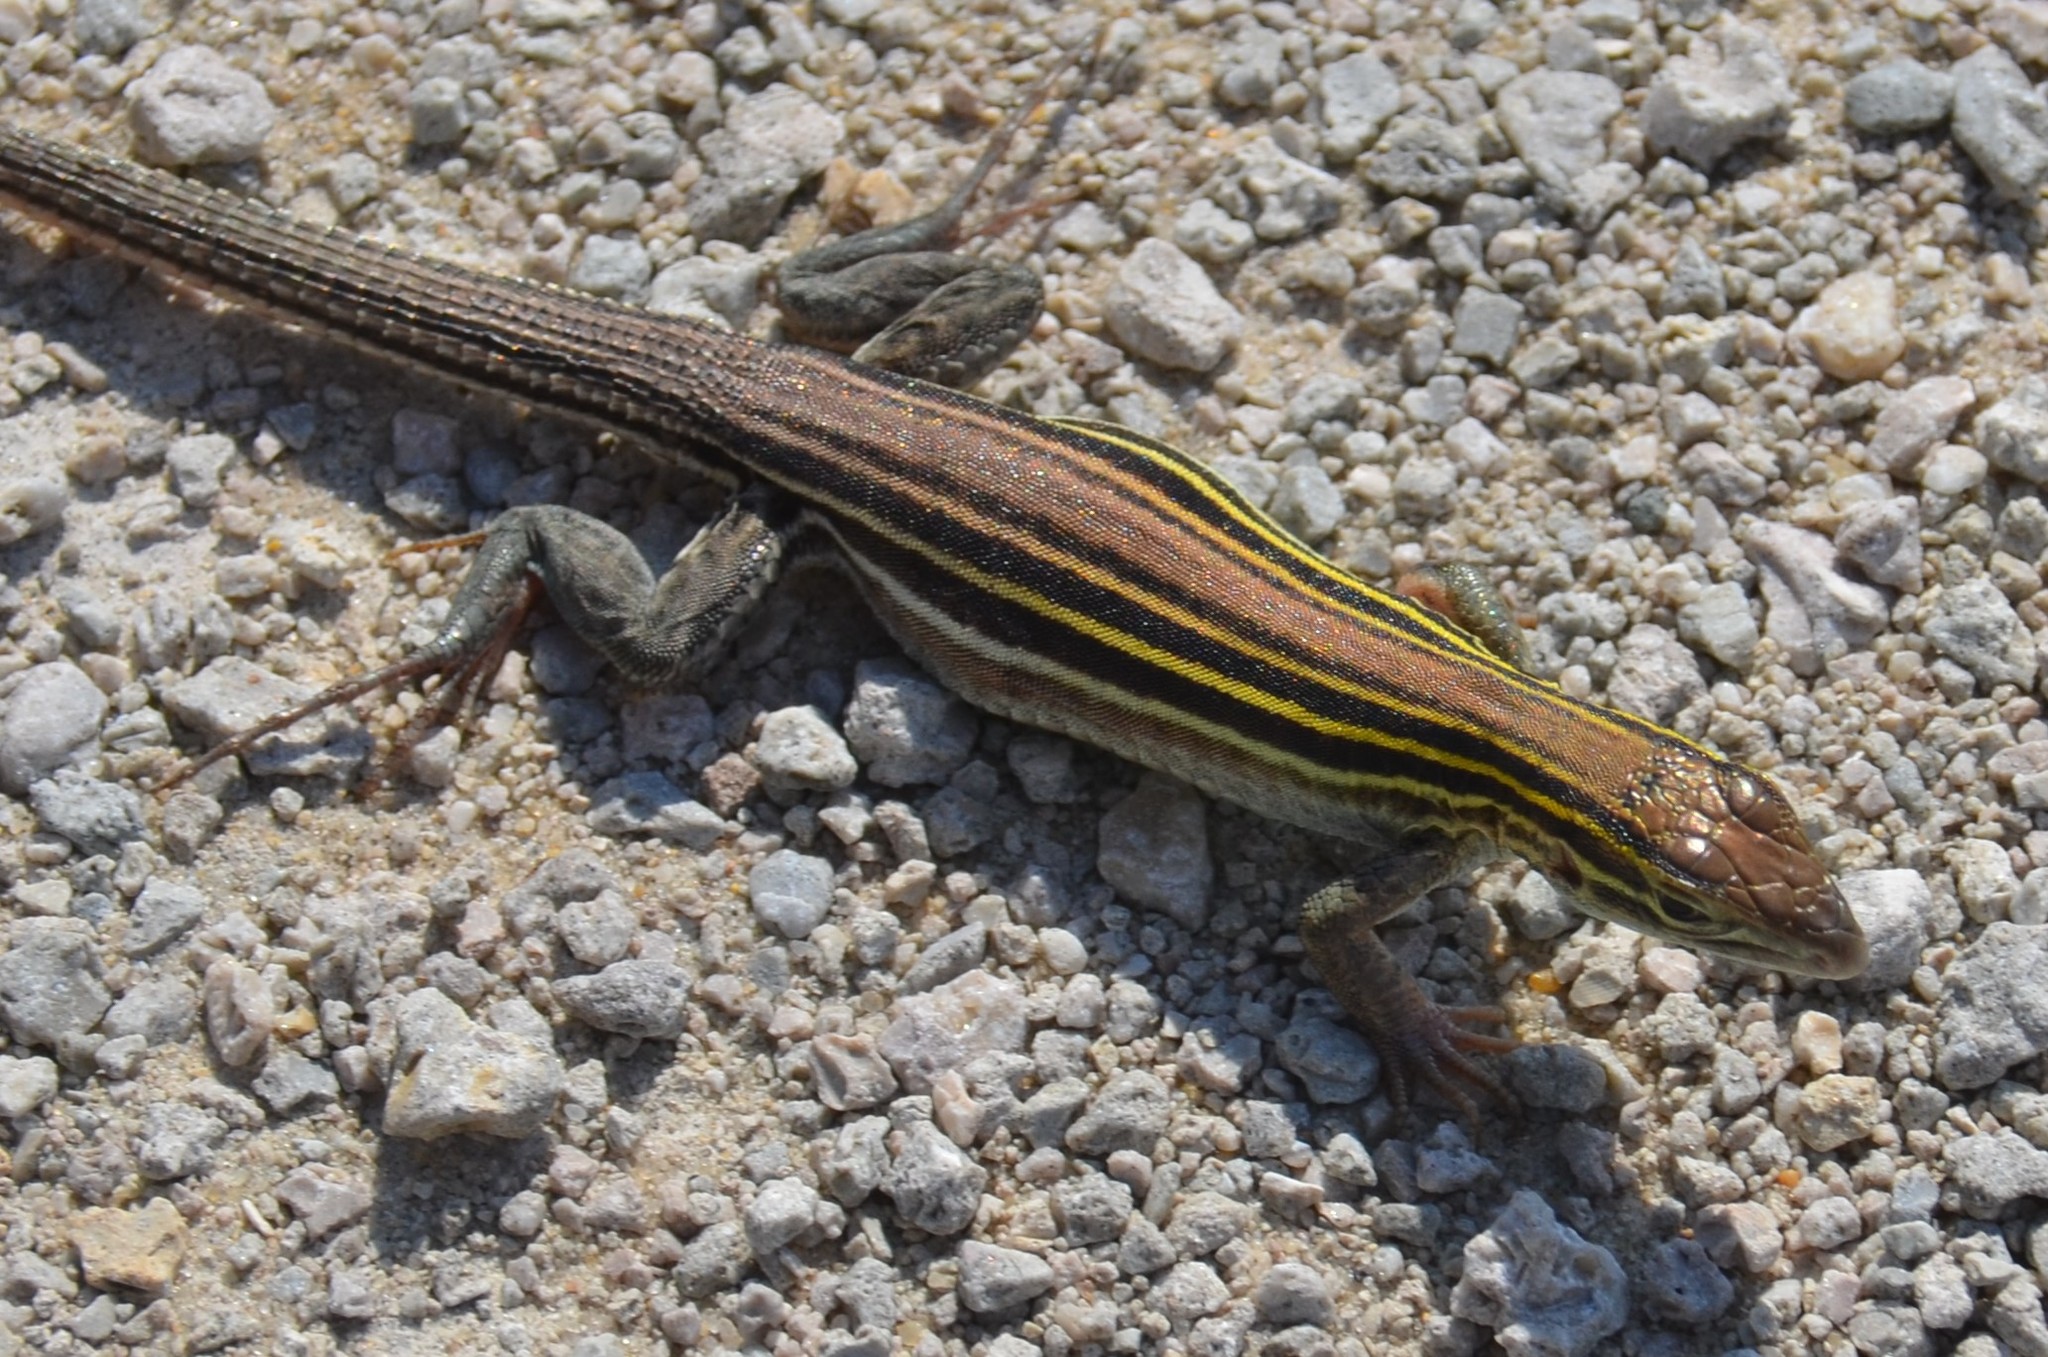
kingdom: Animalia
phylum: Chordata
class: Squamata
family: Teiidae
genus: Aspidoscelis
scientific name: Aspidoscelis sexlineatus
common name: Six-lined racerunner
